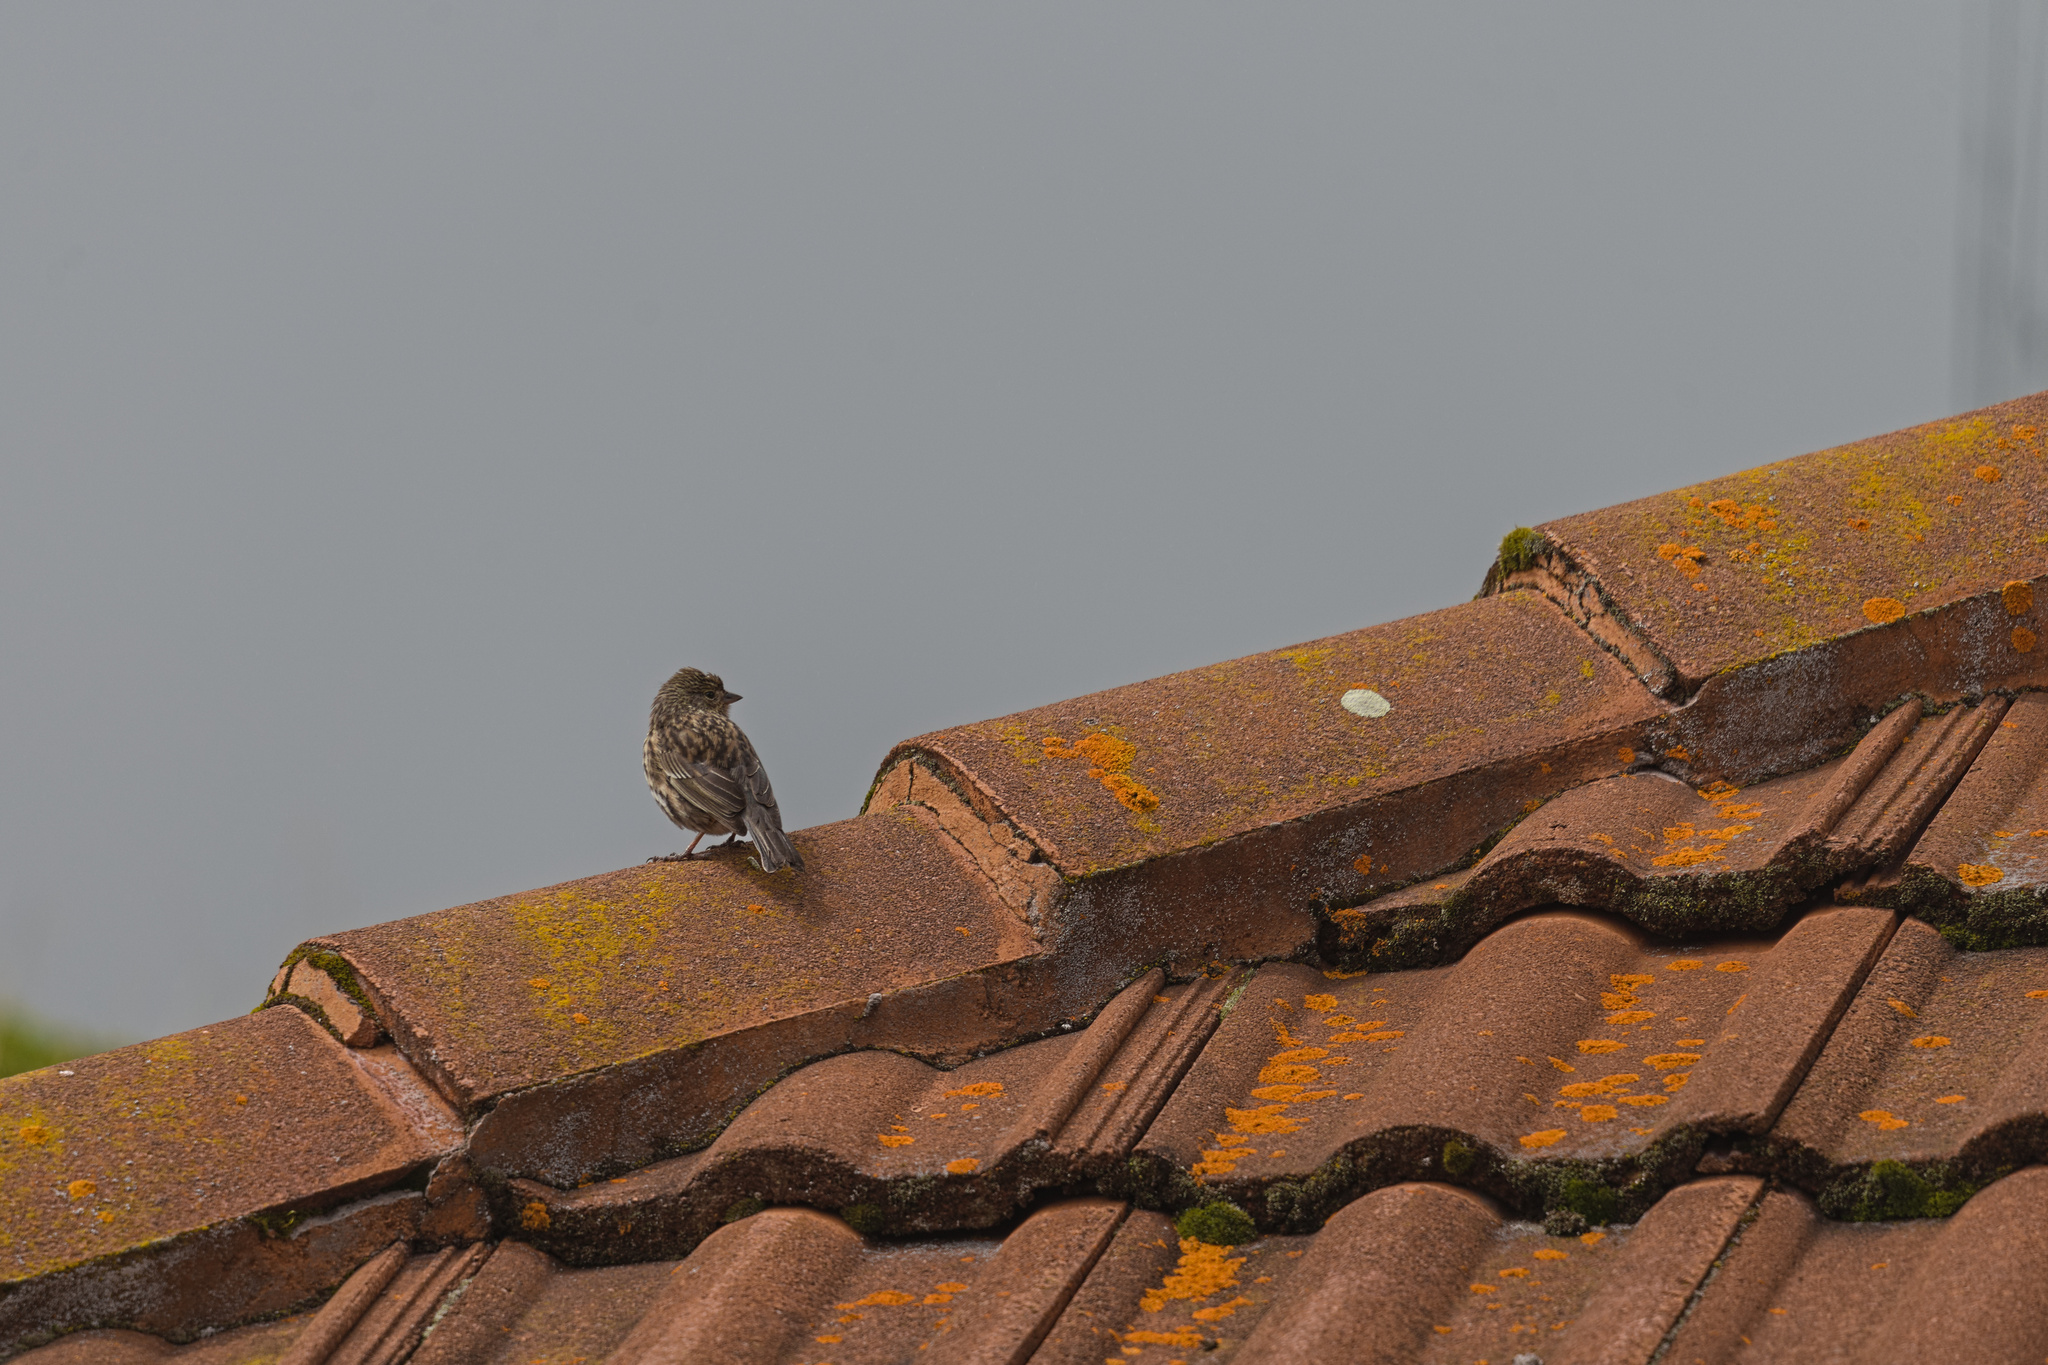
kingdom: Animalia
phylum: Chordata
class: Aves
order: Passeriformes
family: Thraupidae
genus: Geospizopsis
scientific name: Geospizopsis unicolor
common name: Plumbeous sierra-finch
